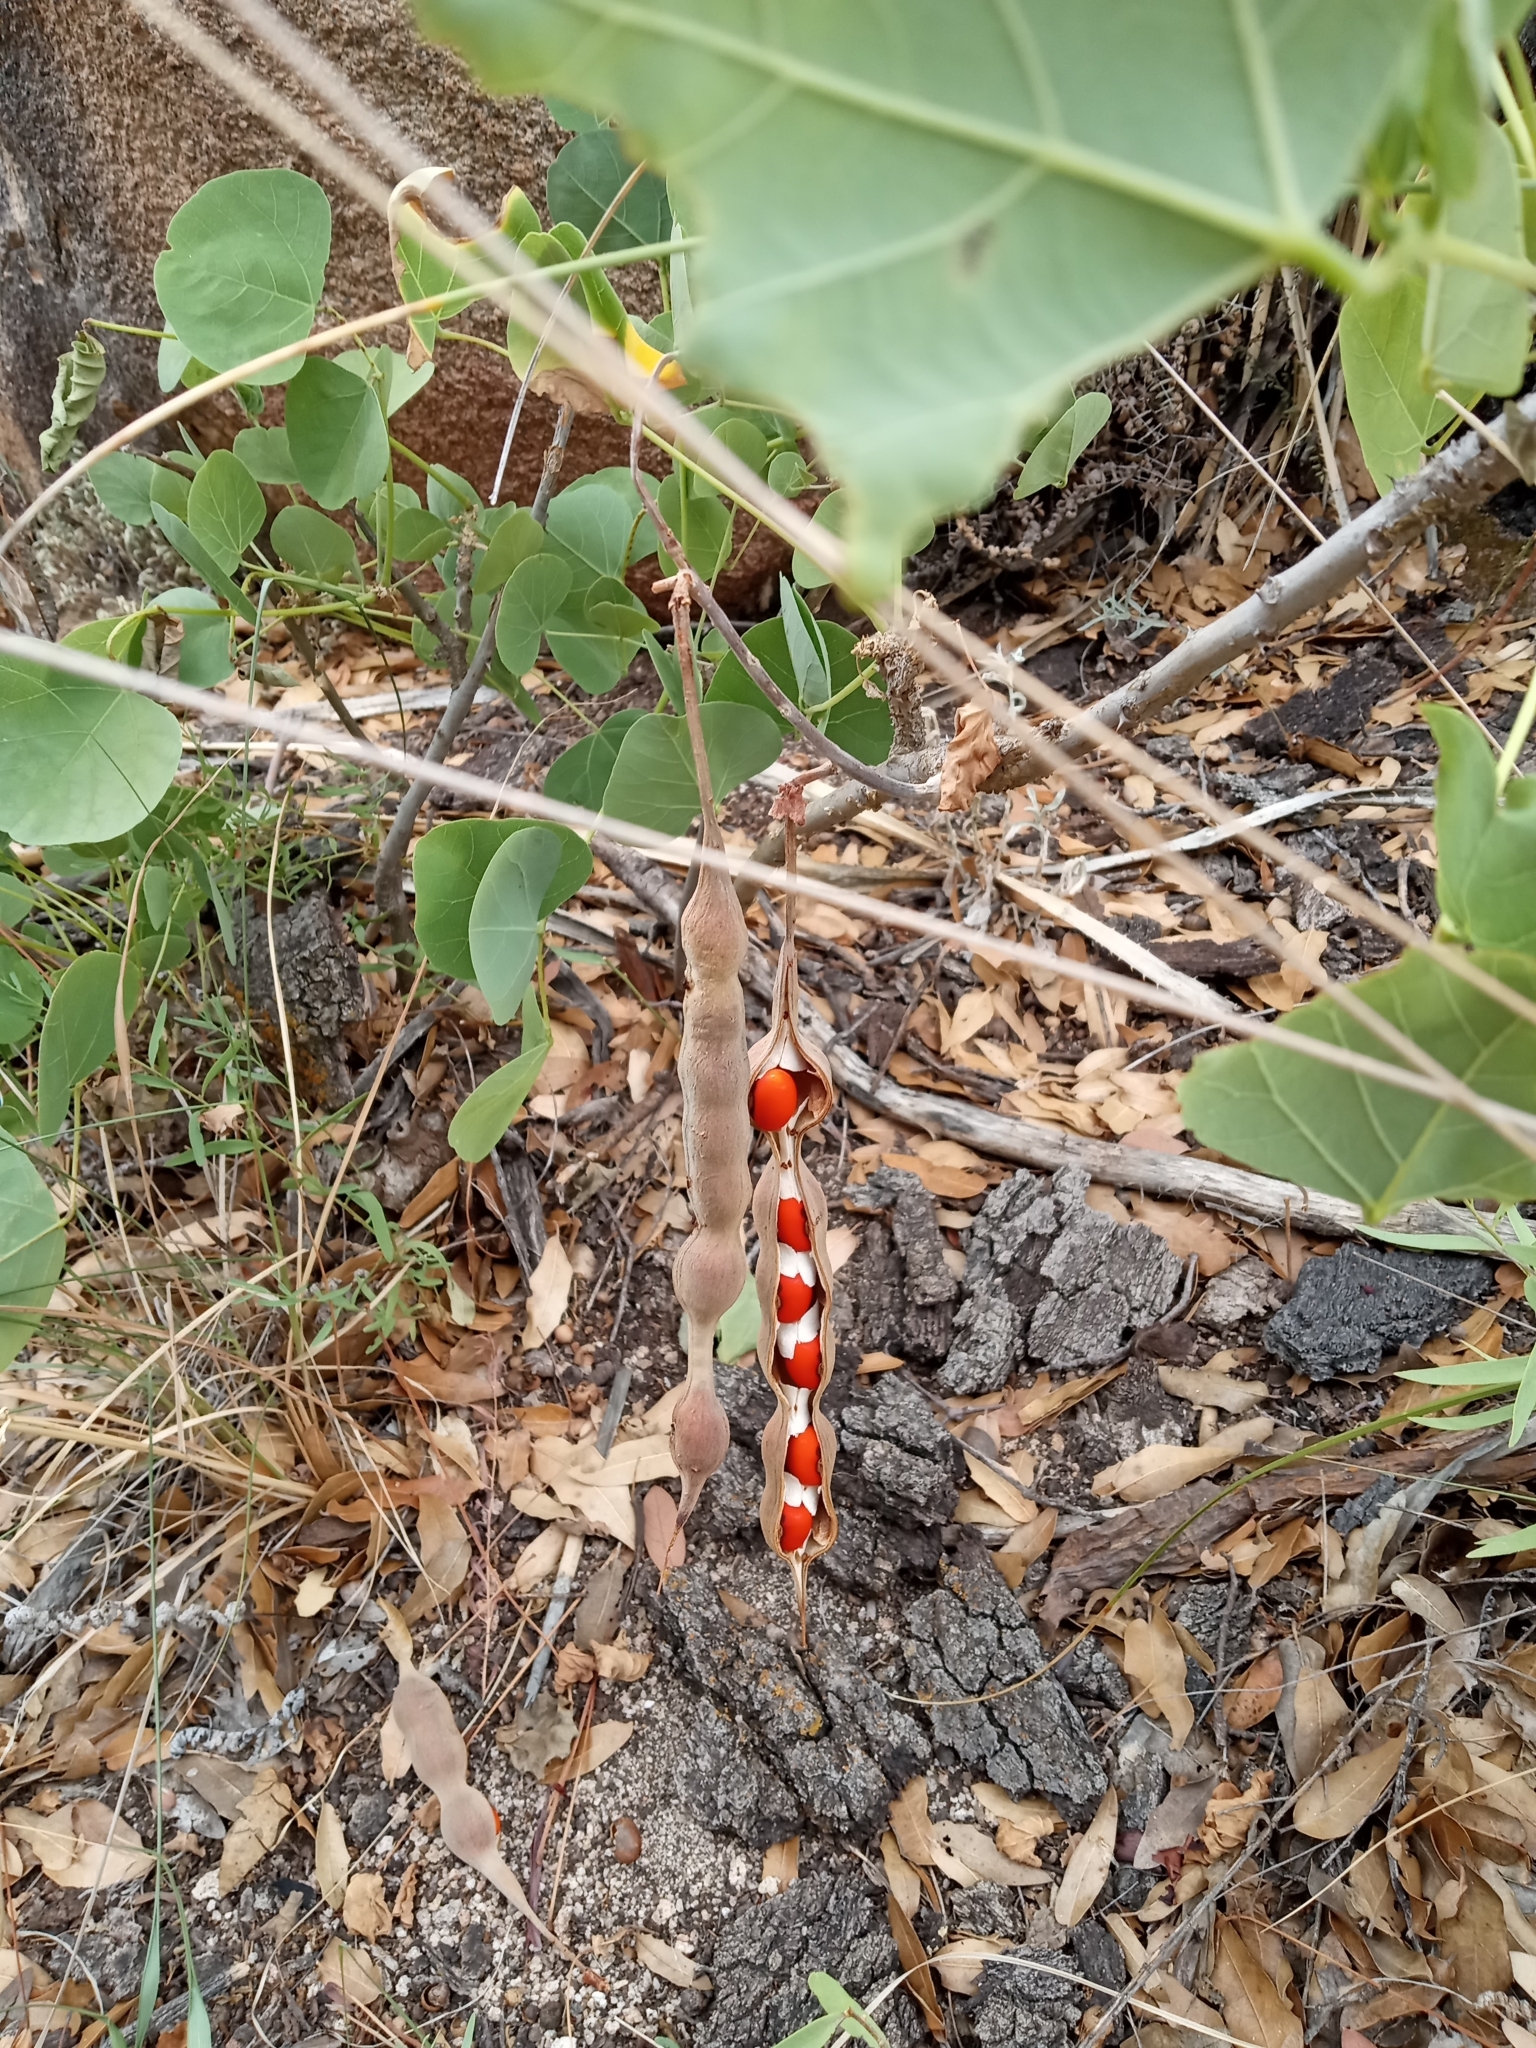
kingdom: Plantae
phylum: Tracheophyta
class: Magnoliopsida
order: Fabales
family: Fabaceae
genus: Erythrina
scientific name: Erythrina flabelliformis
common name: Chilicote
